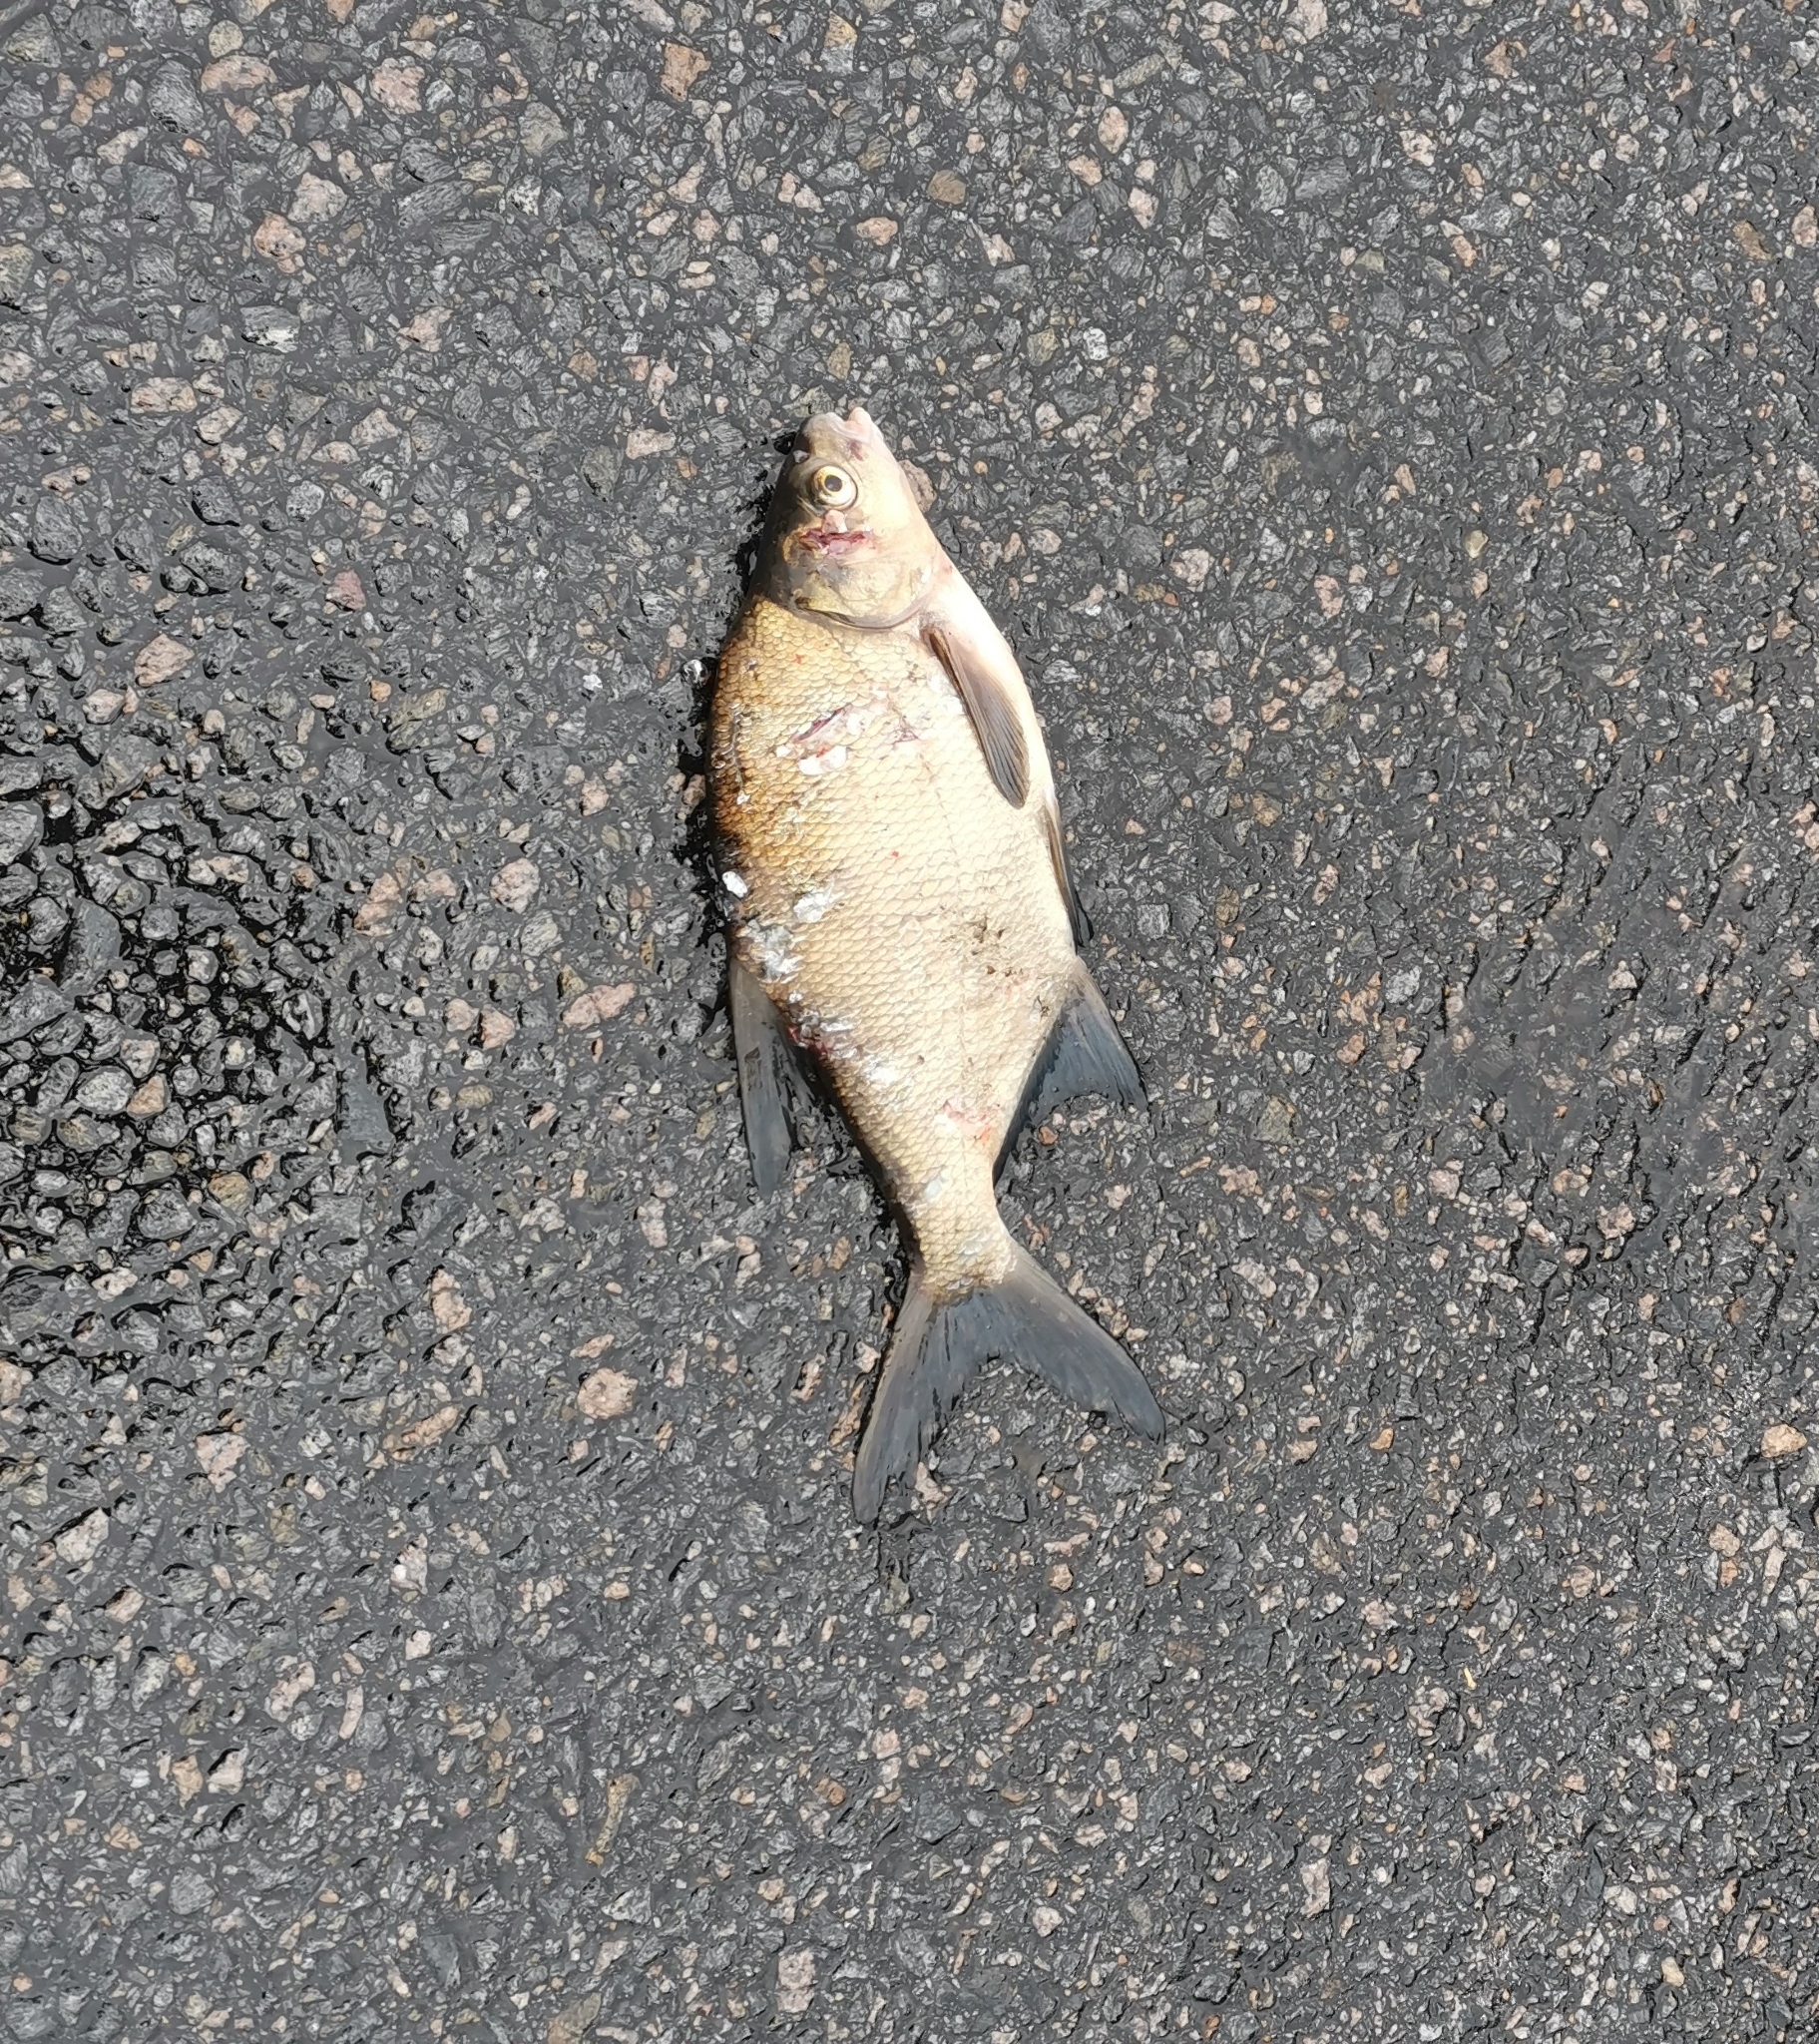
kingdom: Animalia
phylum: Chordata
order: Cypriniformes
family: Cyprinidae
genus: Abramis
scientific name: Abramis brama
